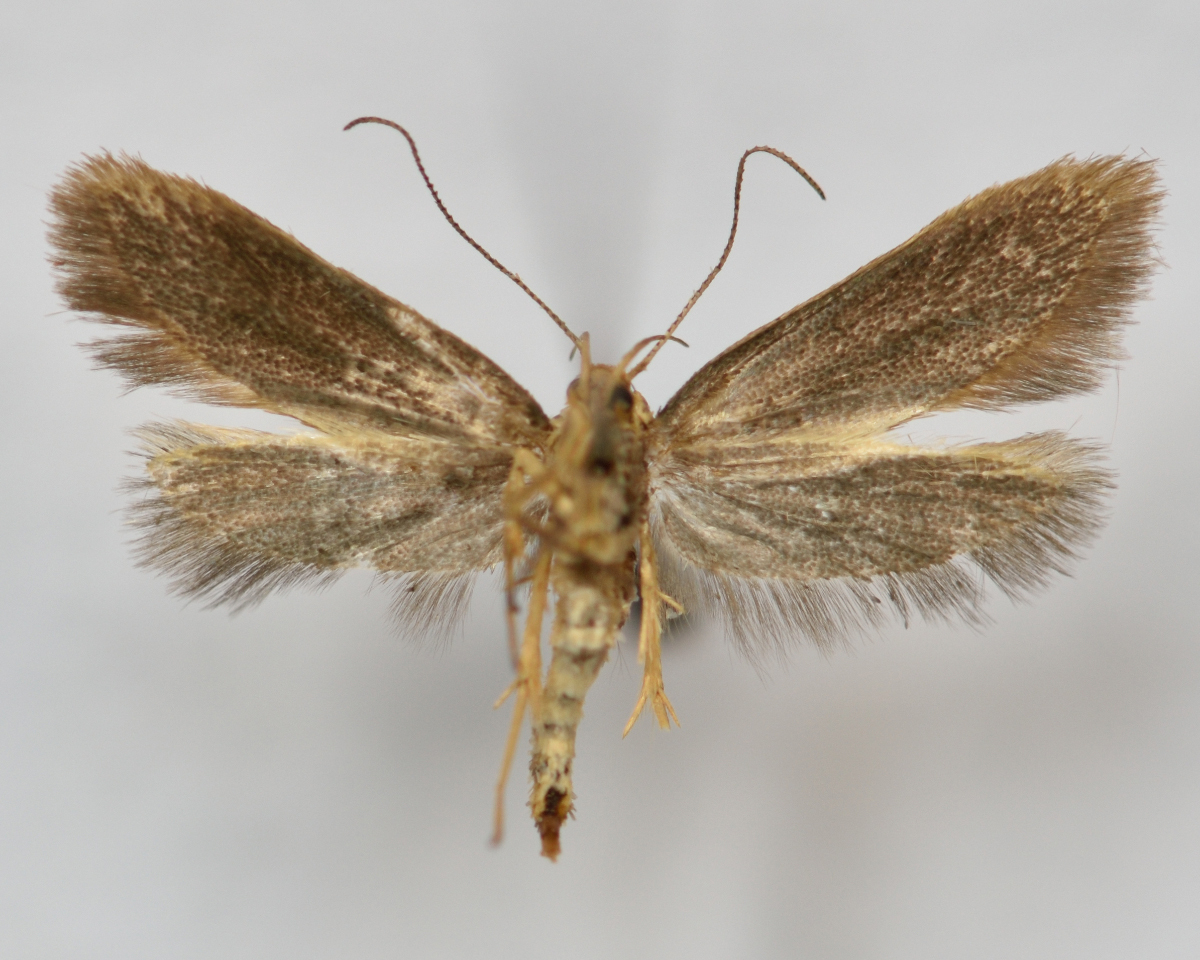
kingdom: Animalia
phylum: Arthropoda
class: Insecta
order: Lepidoptera
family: Oecophoridae
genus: Borkhausenia
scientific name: Borkhausenia Crassa unitella
